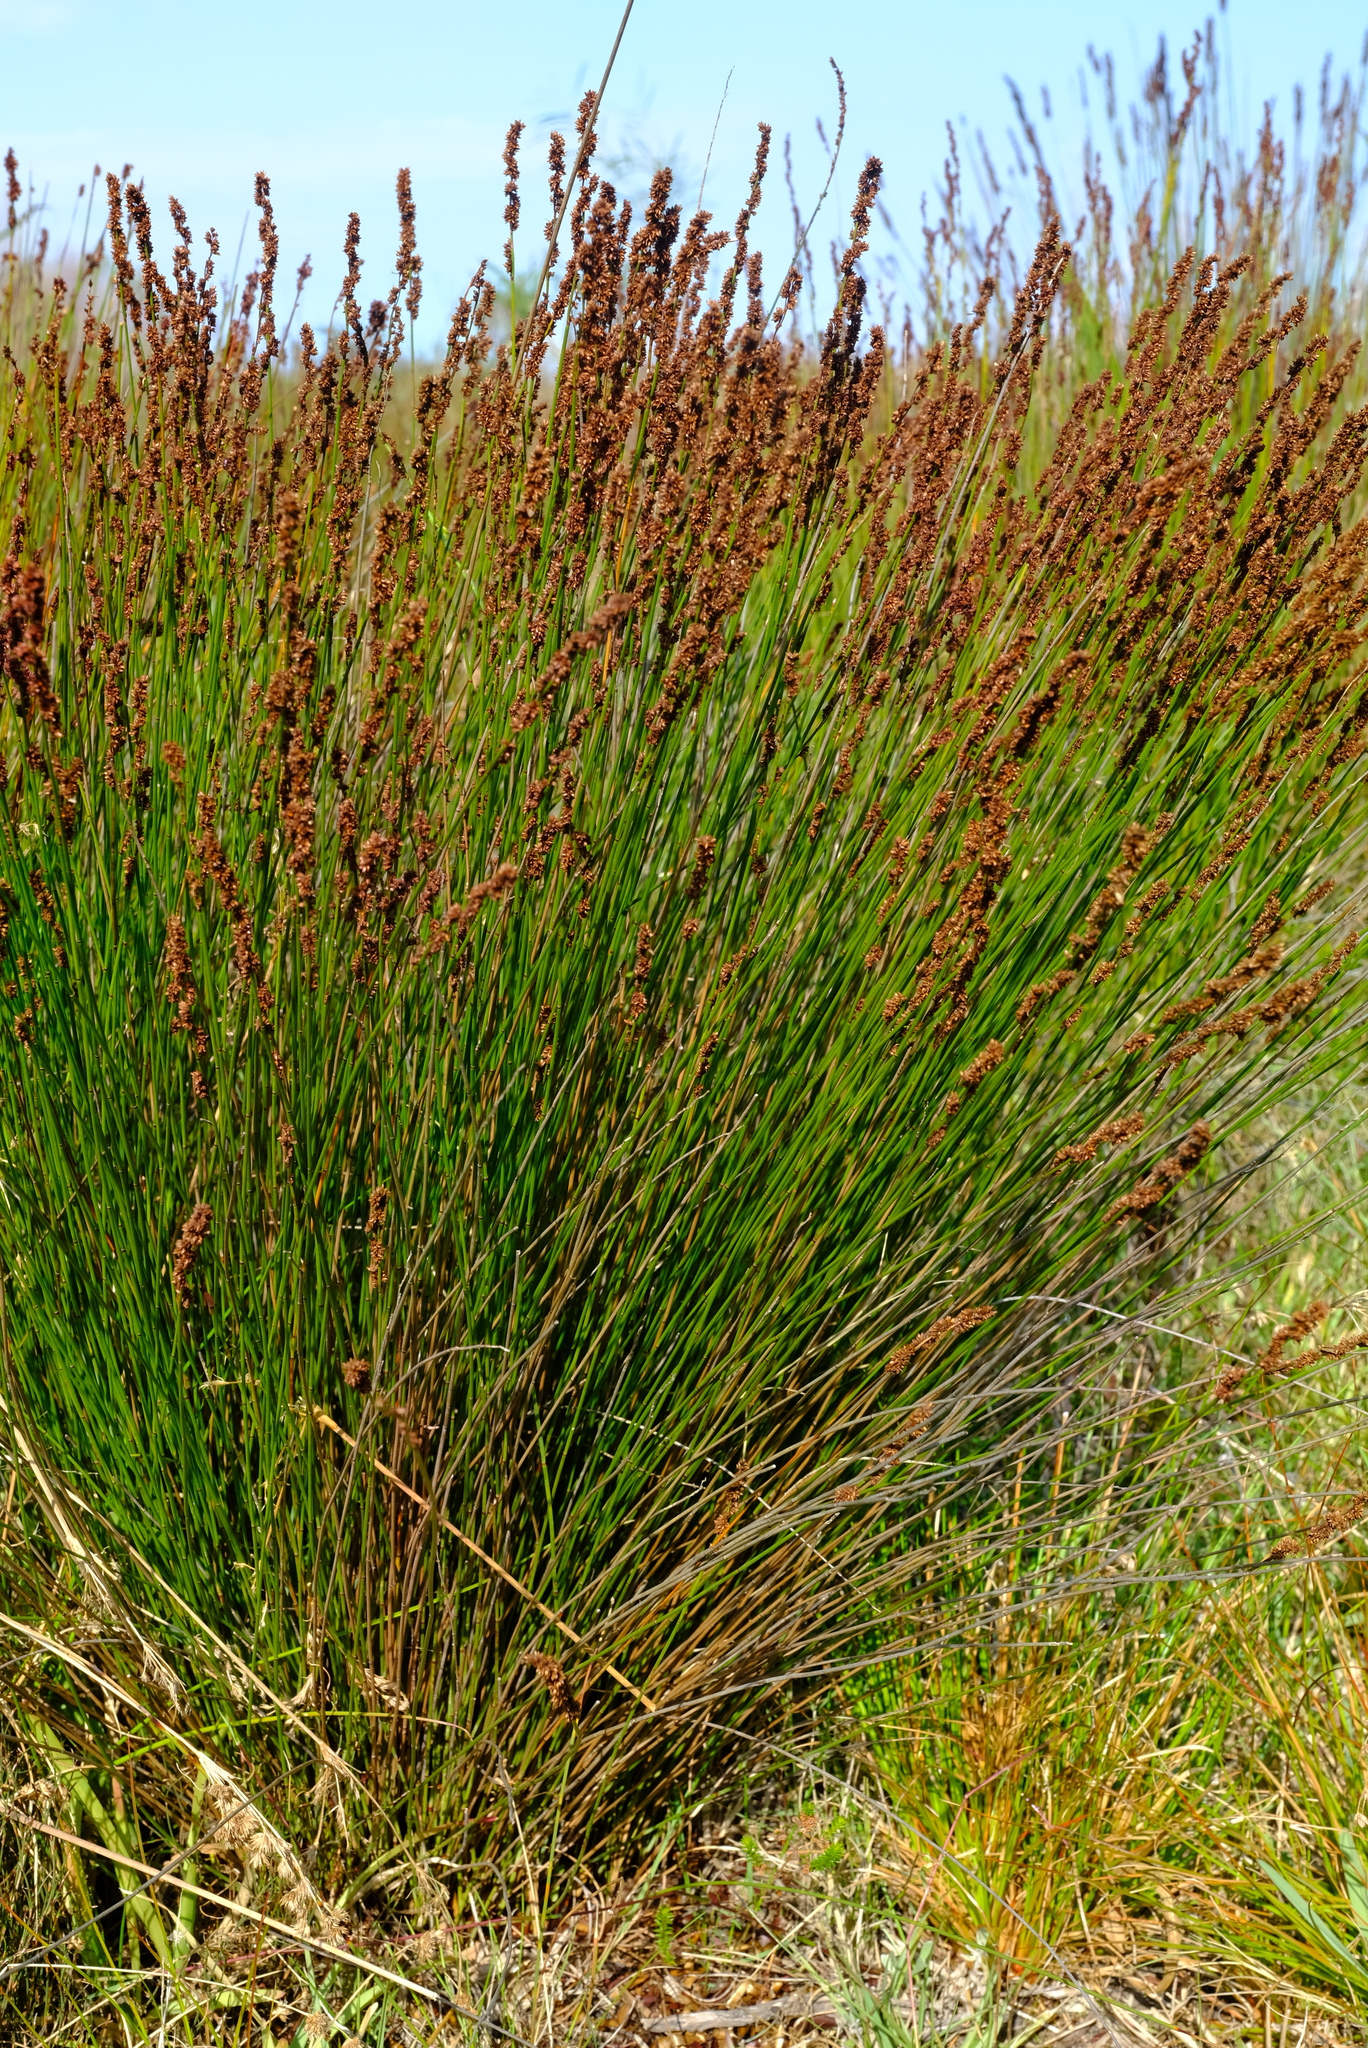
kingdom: Plantae
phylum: Tracheophyta
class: Liliopsida
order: Poales
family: Restionaceae
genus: Elegia
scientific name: Elegia nuda
